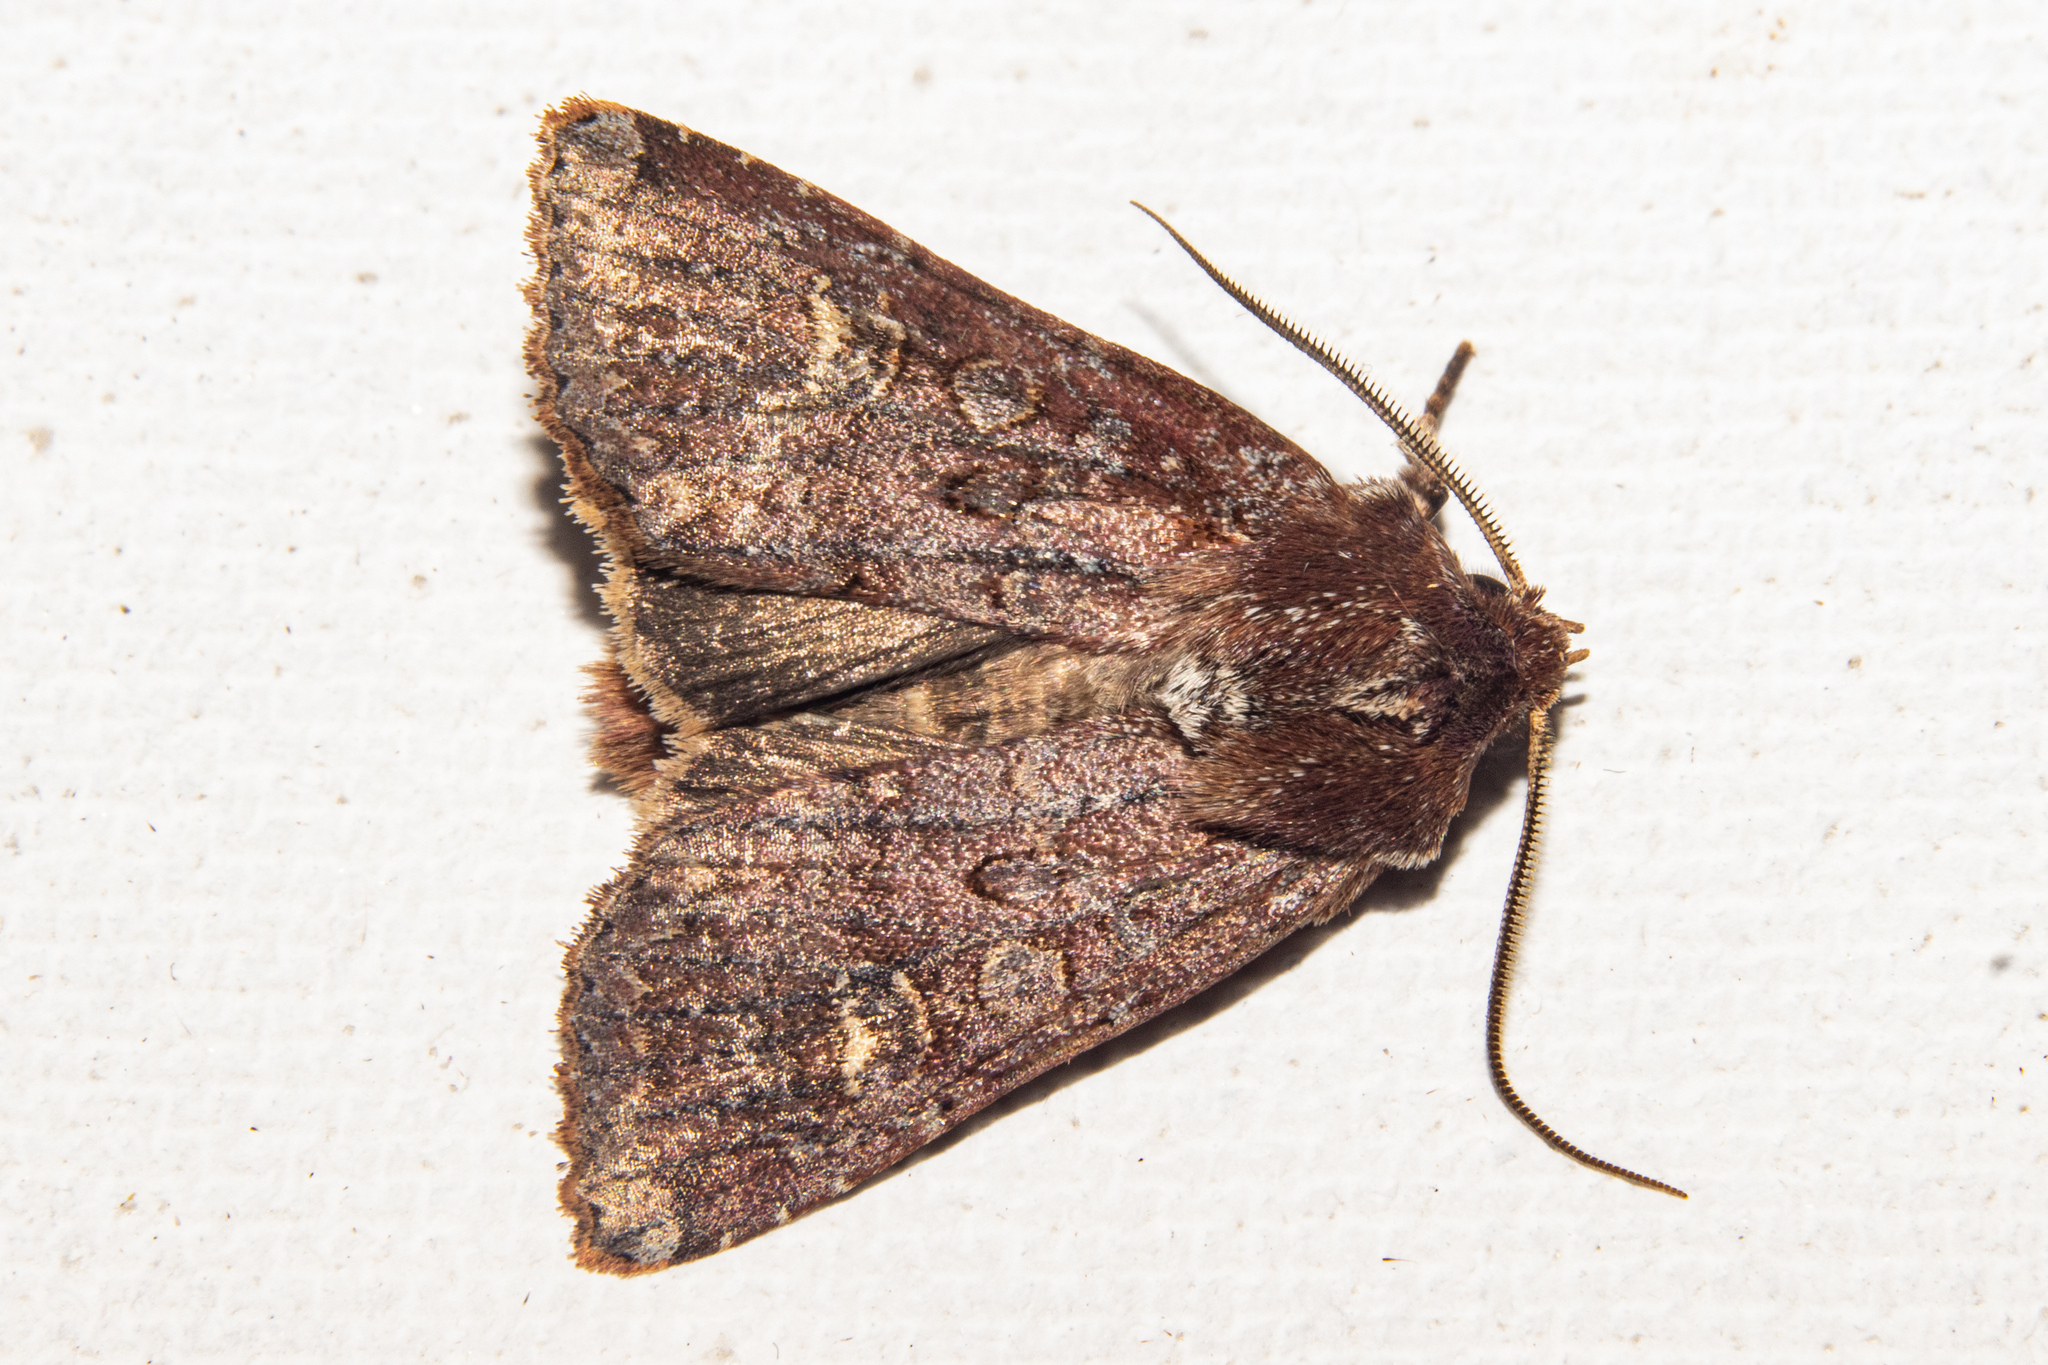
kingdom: Animalia
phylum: Arthropoda
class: Insecta
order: Lepidoptera
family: Noctuidae
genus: Ichneutica
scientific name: Ichneutica agorastis
